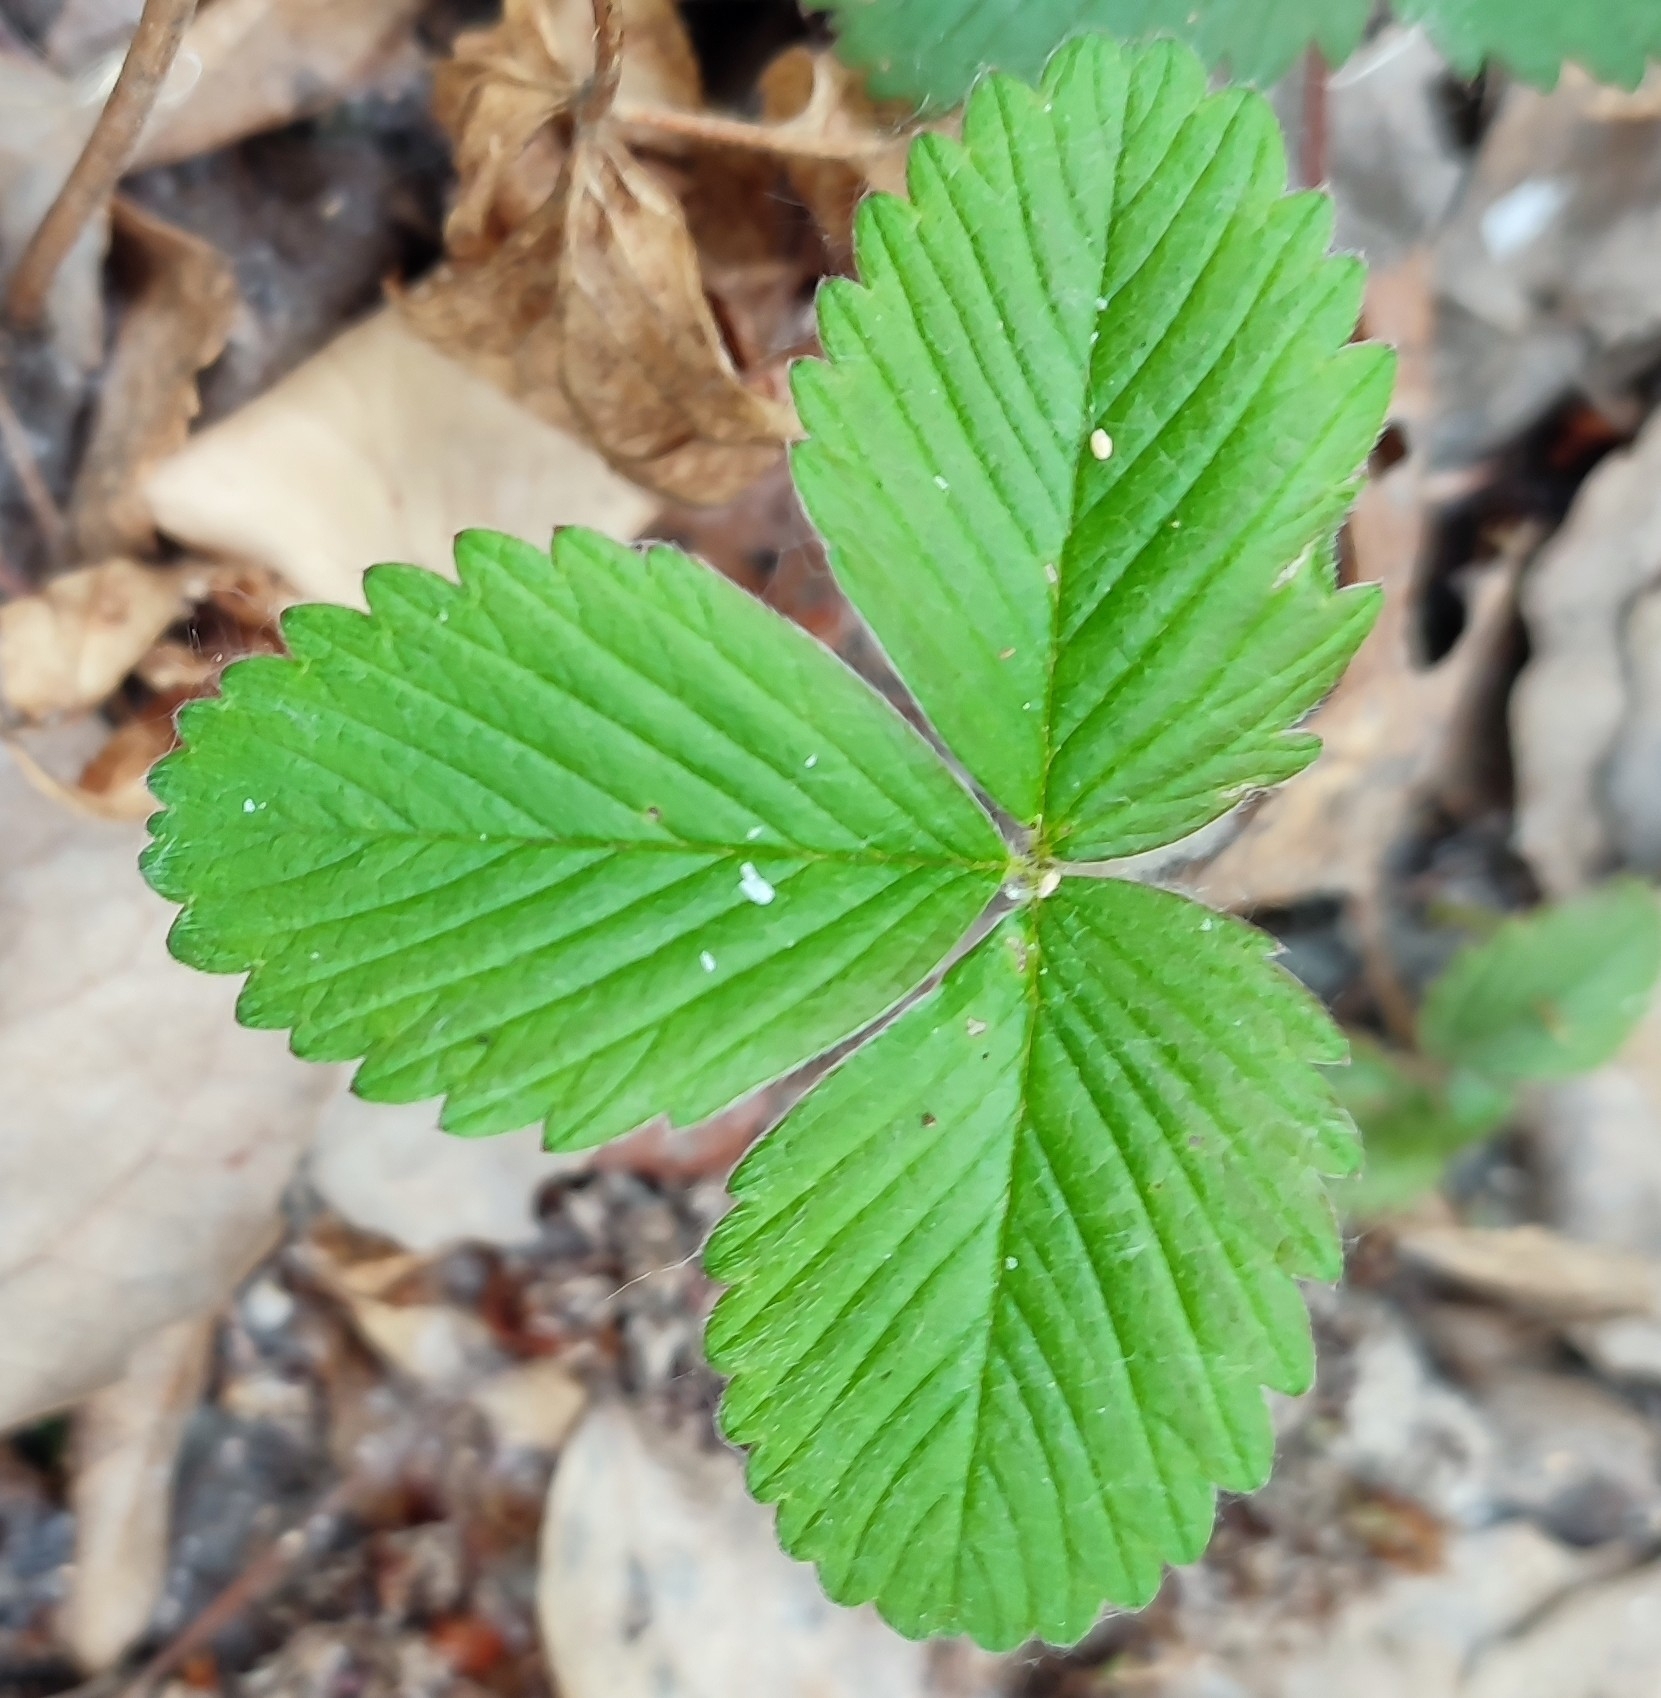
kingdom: Plantae
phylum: Tracheophyta
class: Magnoliopsida
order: Rosales
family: Rosaceae
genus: Fragaria
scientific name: Fragaria viridis
